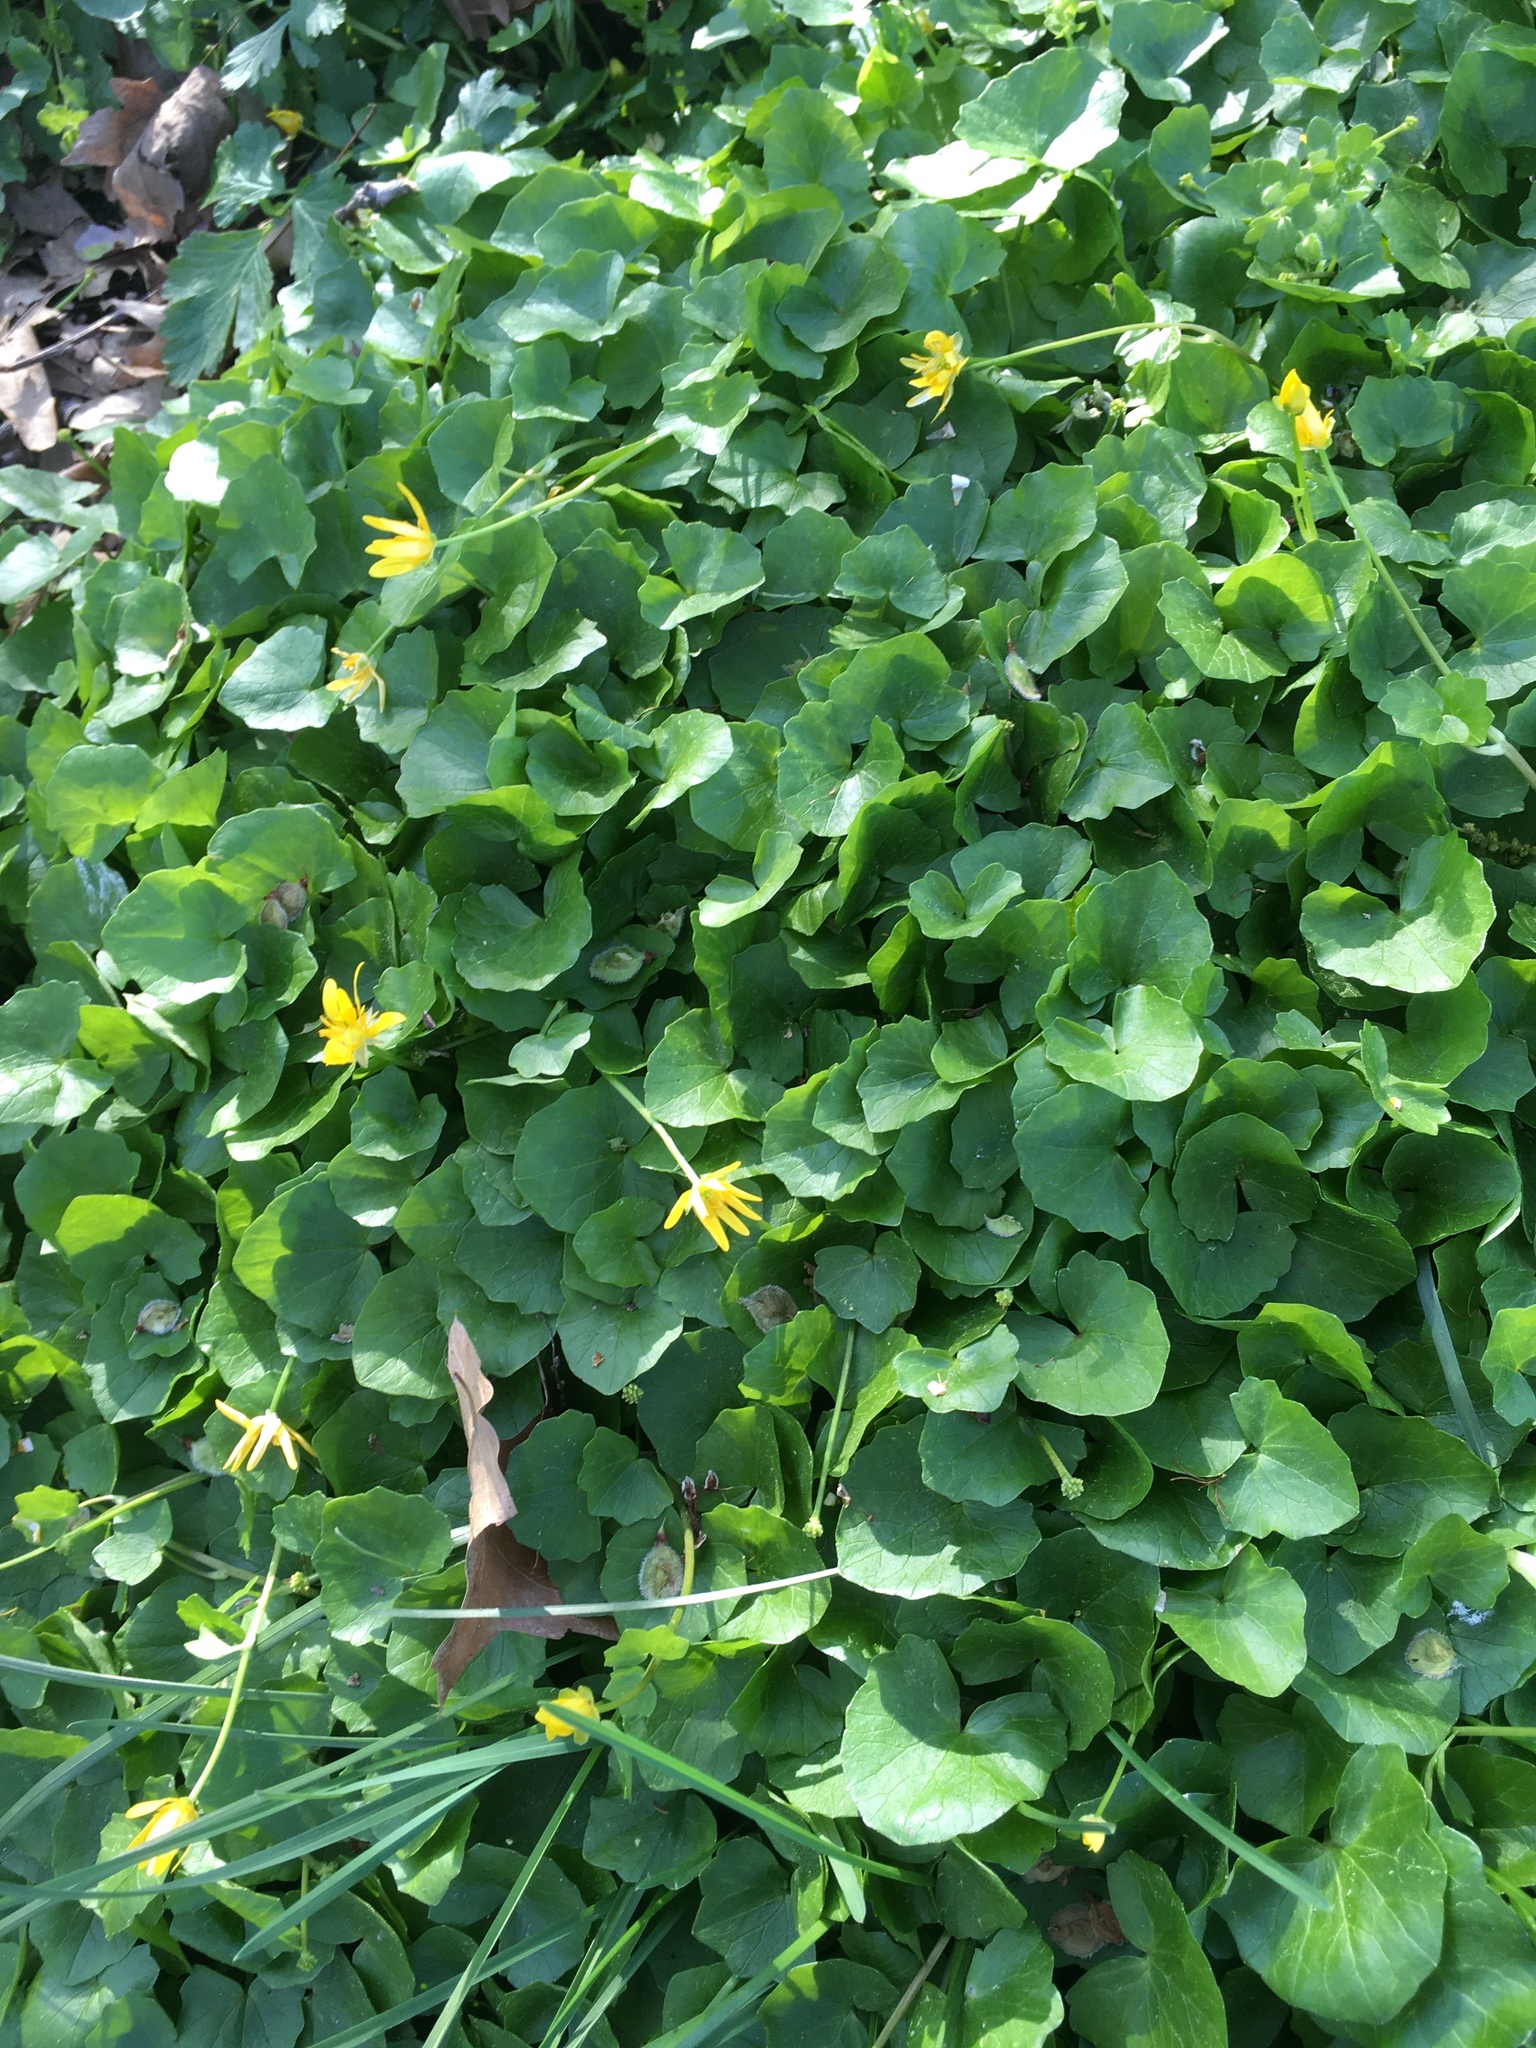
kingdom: Plantae
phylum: Tracheophyta
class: Magnoliopsida
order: Ranunculales
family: Ranunculaceae
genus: Ficaria
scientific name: Ficaria verna
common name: Lesser celandine
